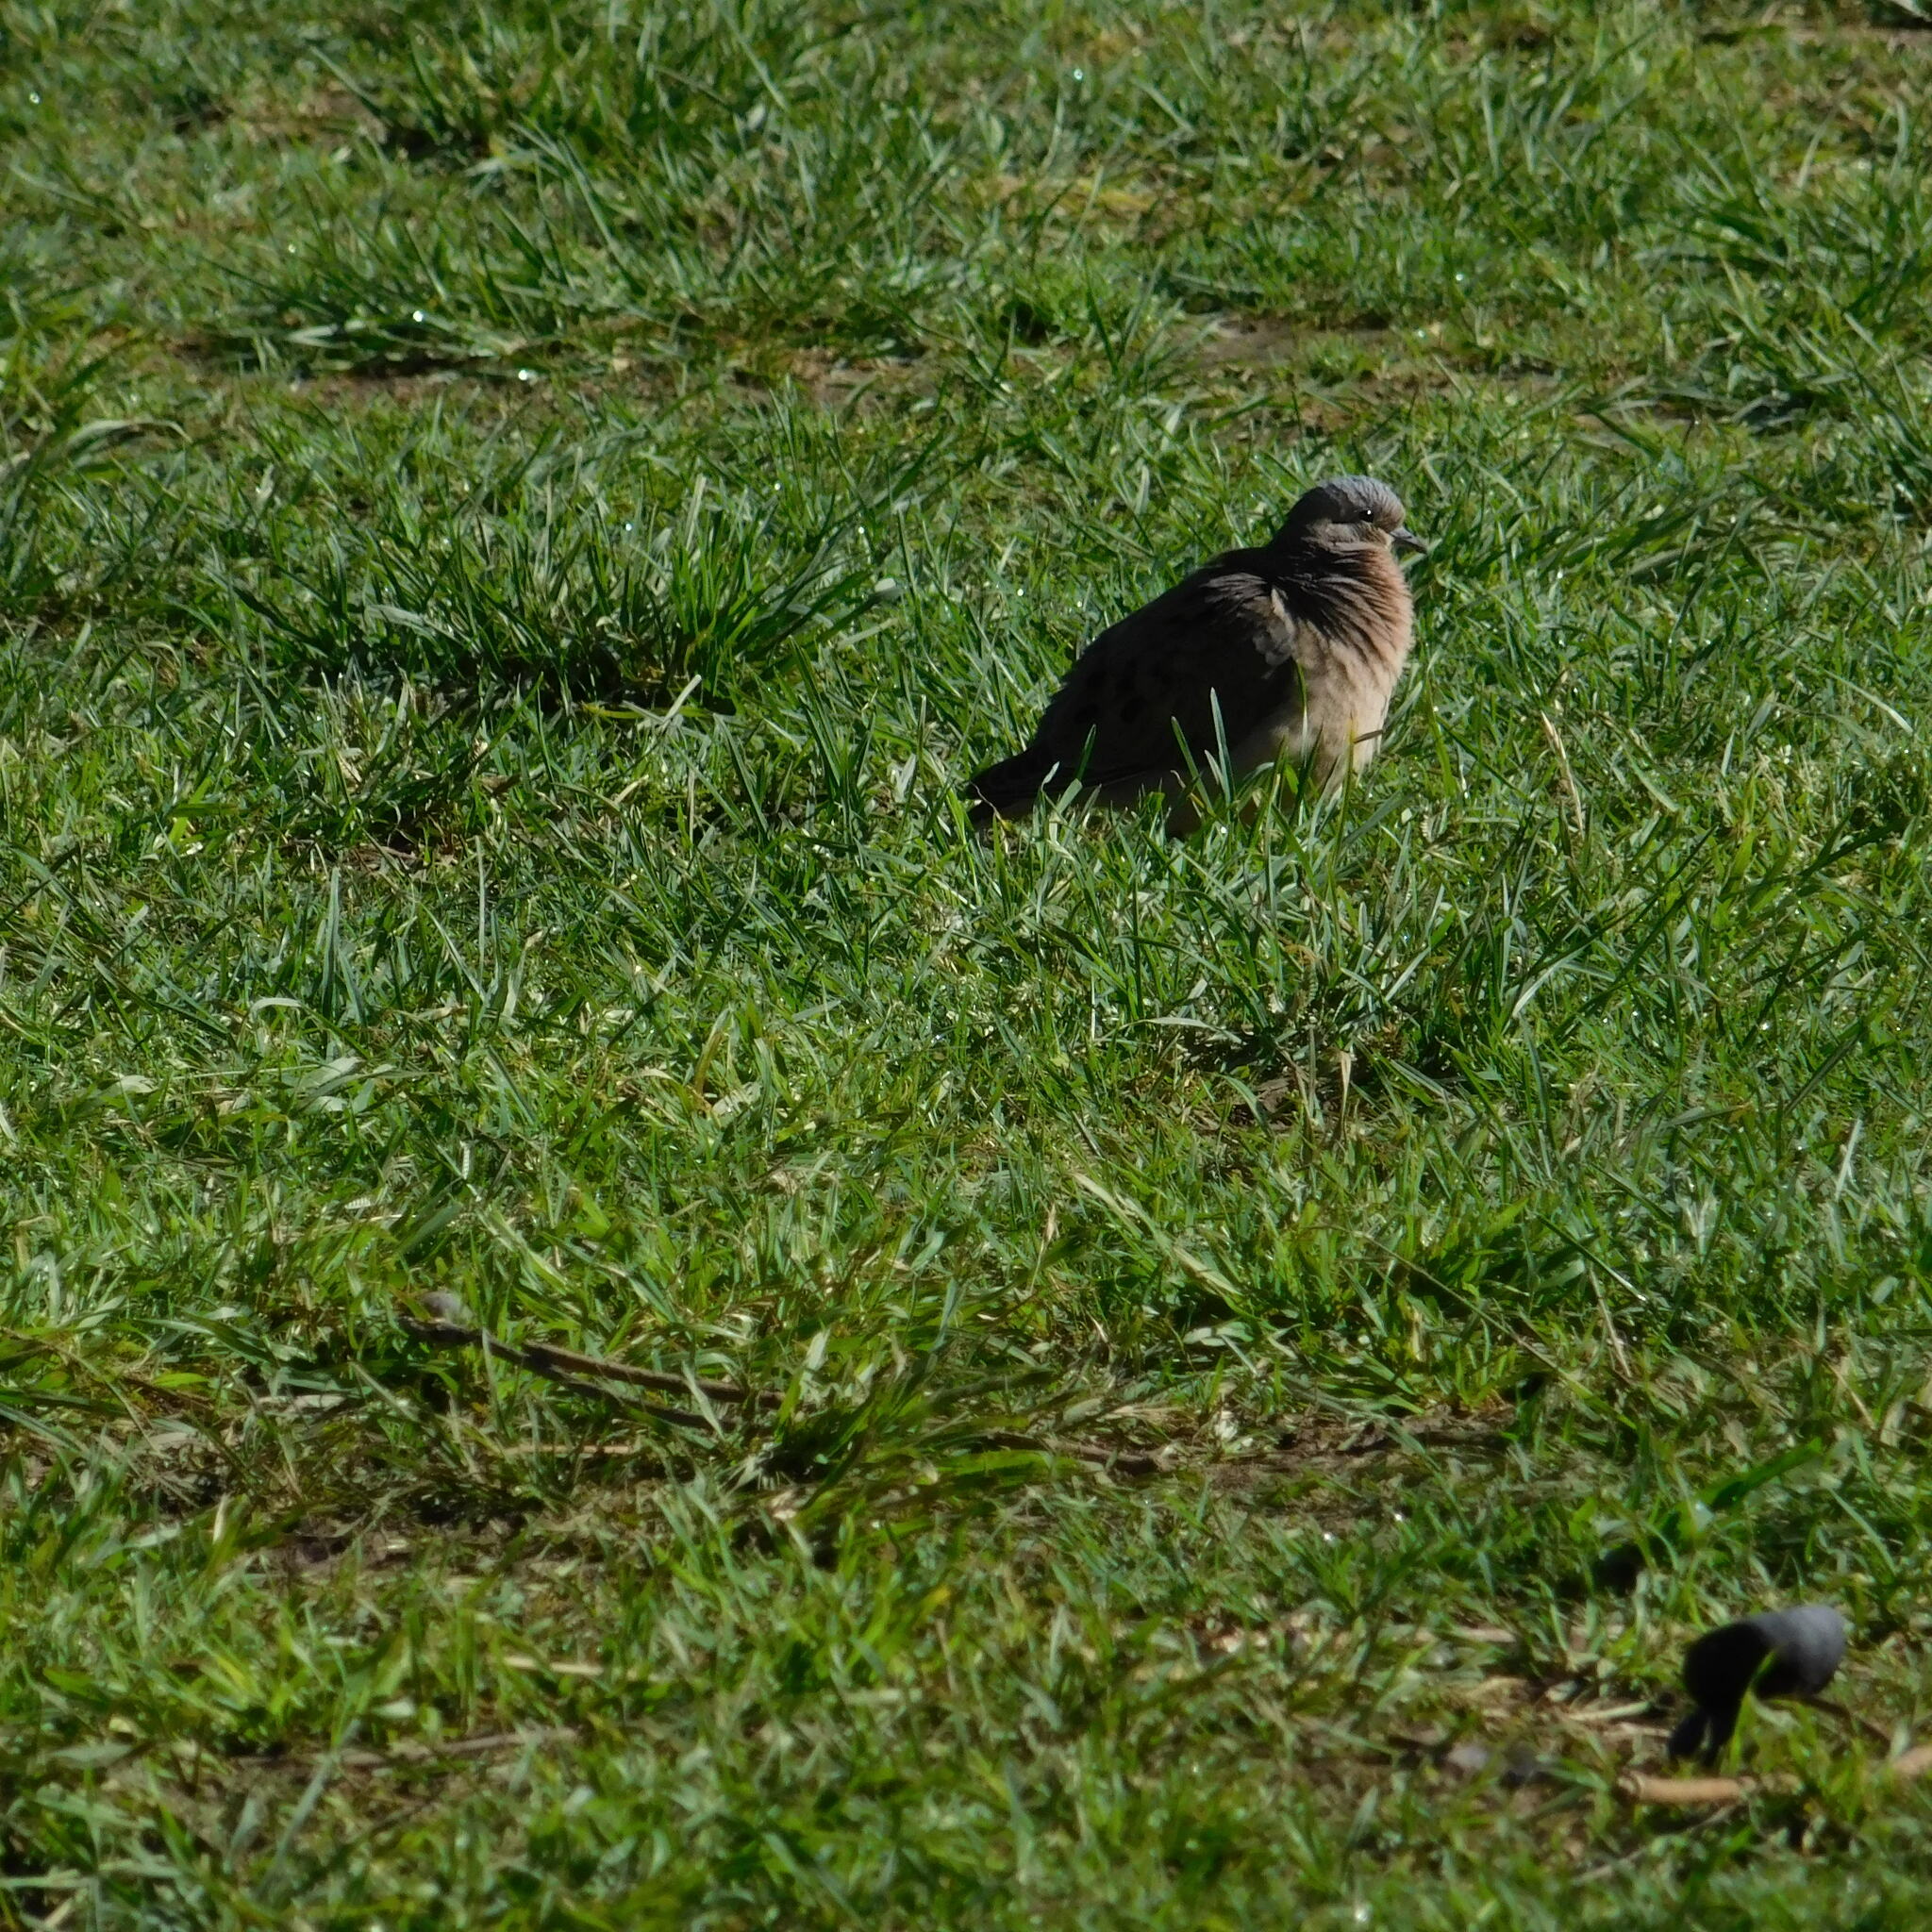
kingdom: Animalia
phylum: Chordata
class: Aves
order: Columbiformes
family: Columbidae
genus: Zenaida
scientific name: Zenaida auriculata
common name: Eared dove
